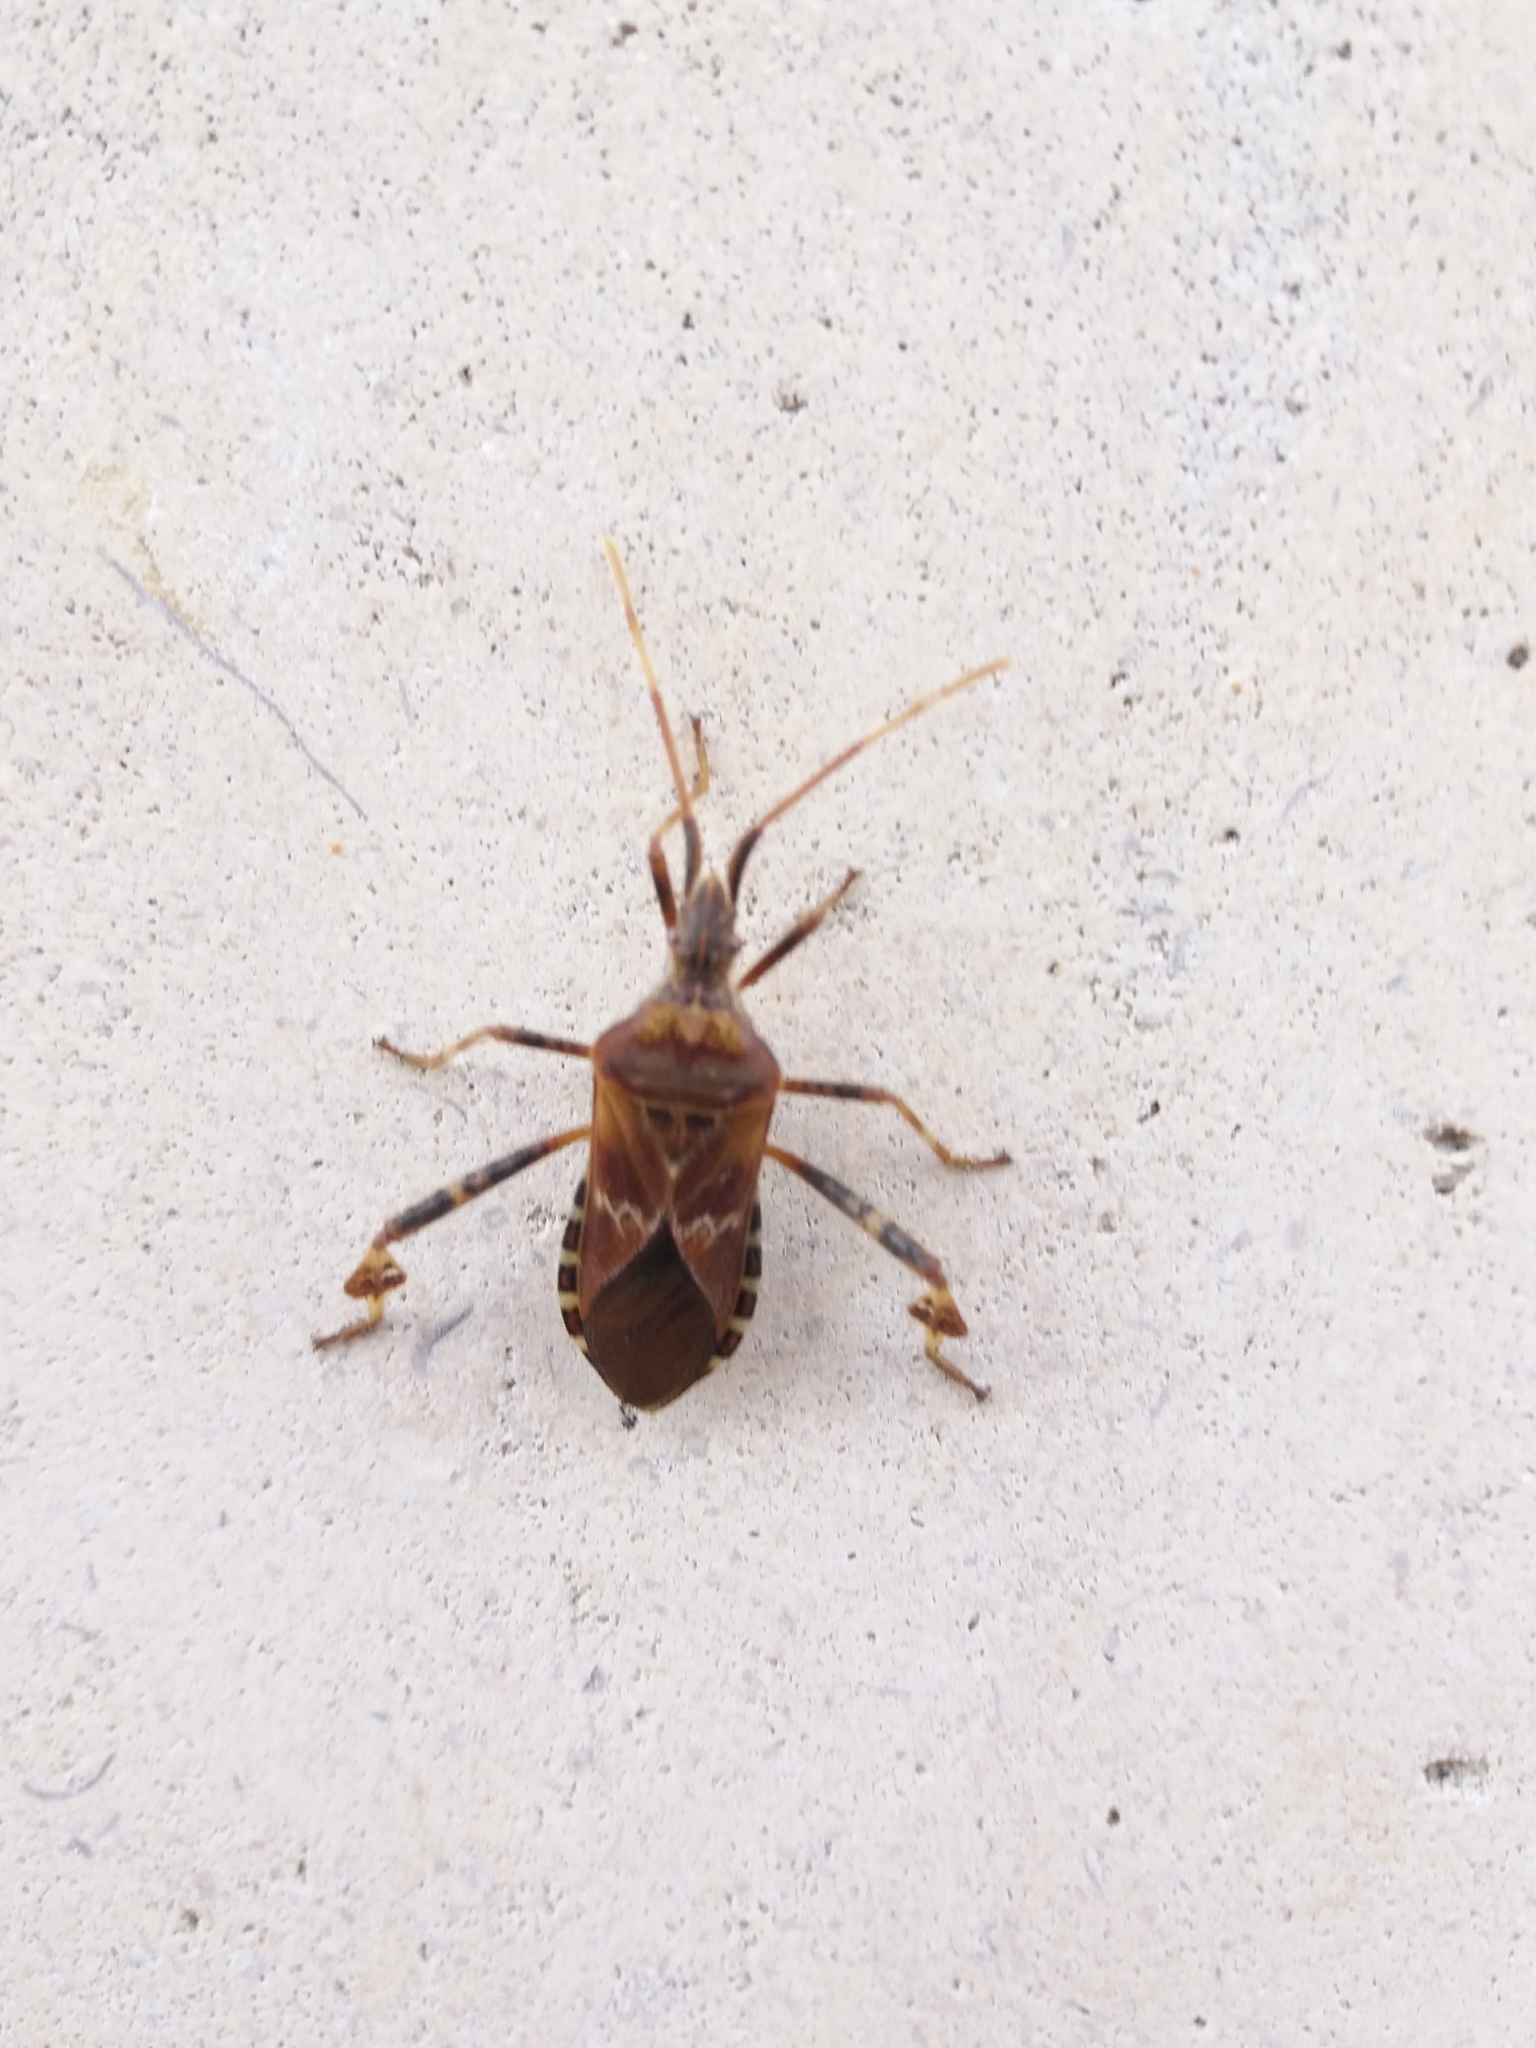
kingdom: Animalia
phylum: Arthropoda
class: Insecta
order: Hemiptera
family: Coreidae
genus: Leptoglossus
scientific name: Leptoglossus occidentalis
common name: Western conifer-seed bug
